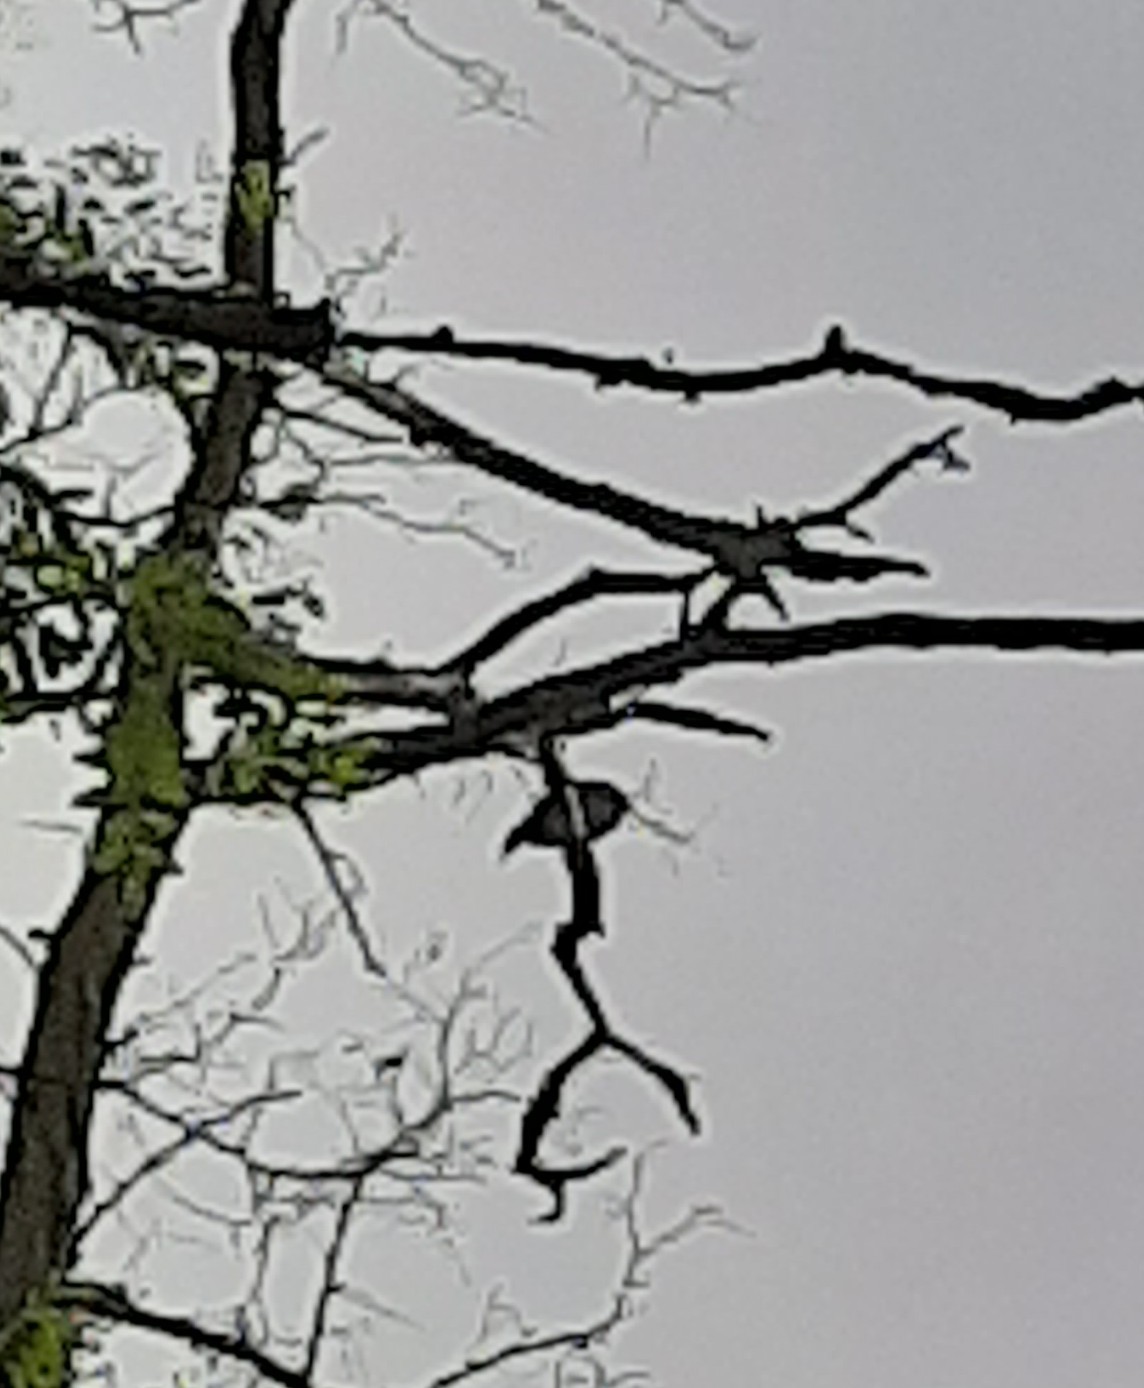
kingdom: Animalia
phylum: Chordata
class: Aves
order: Passeriformes
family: Turdidae
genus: Turdus
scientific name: Turdus merula
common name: Common blackbird
